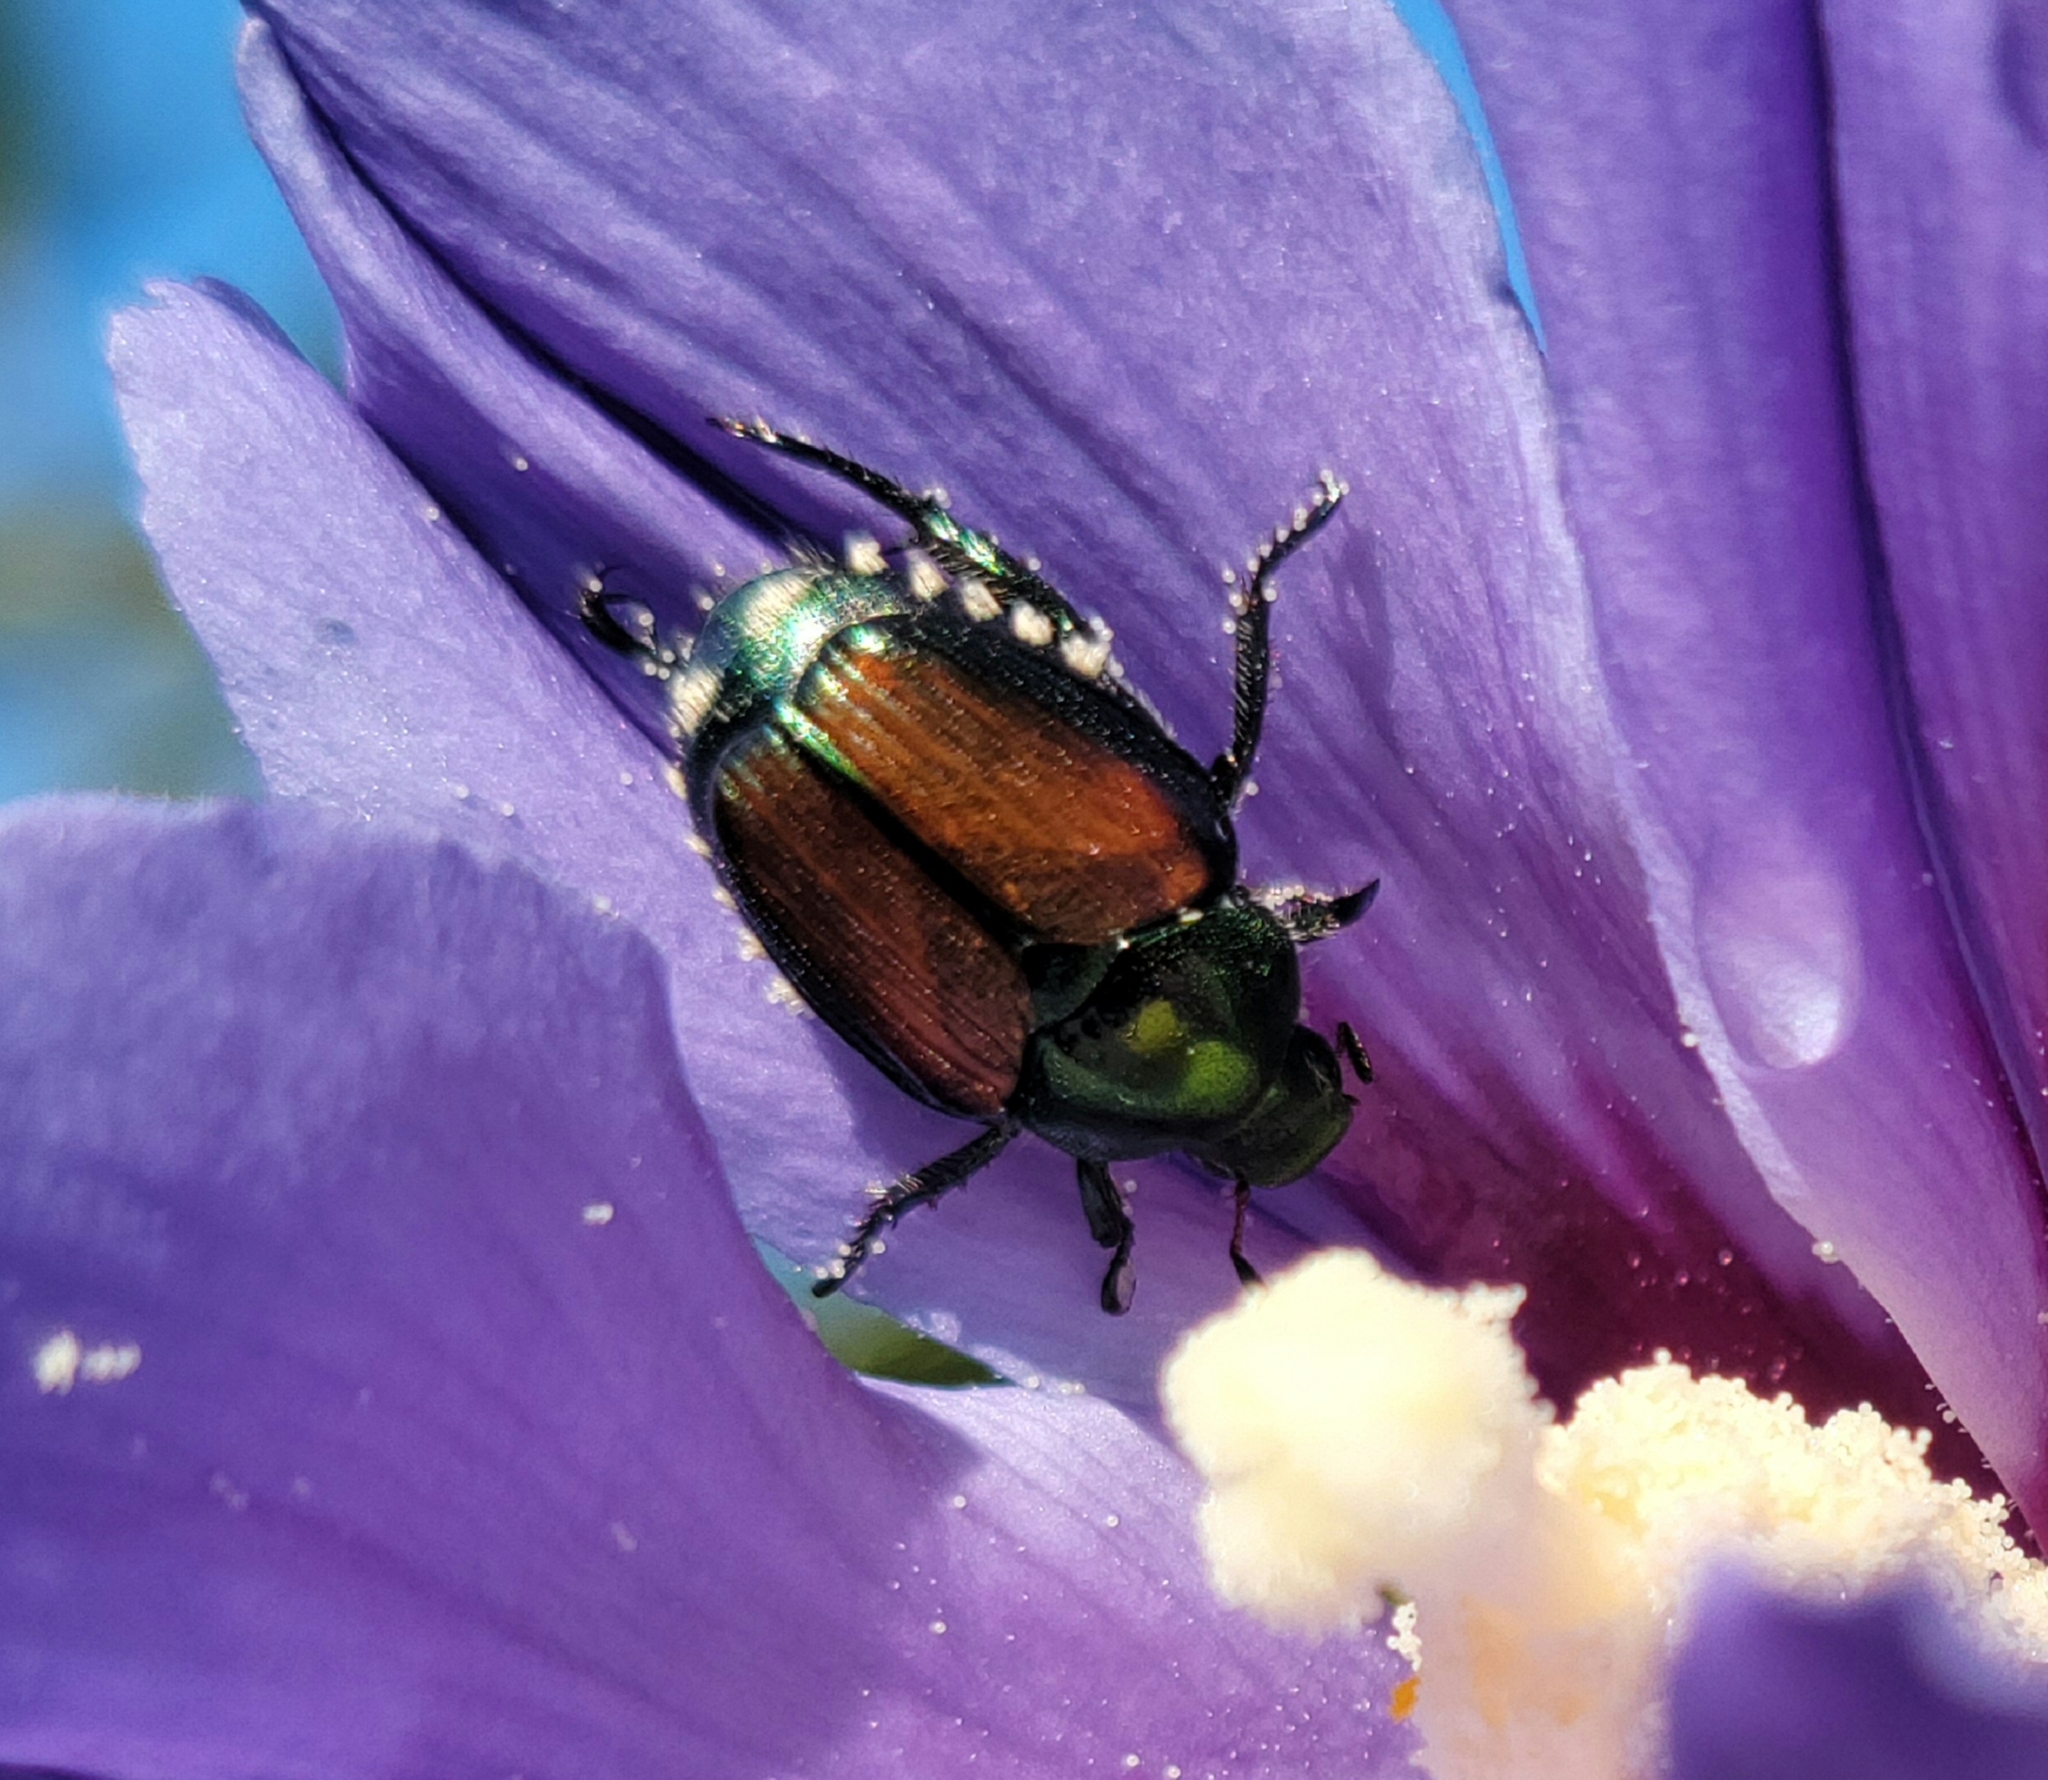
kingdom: Animalia
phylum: Arthropoda
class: Insecta
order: Coleoptera
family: Scarabaeidae
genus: Popillia
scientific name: Popillia japonica
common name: Japanese beetle
